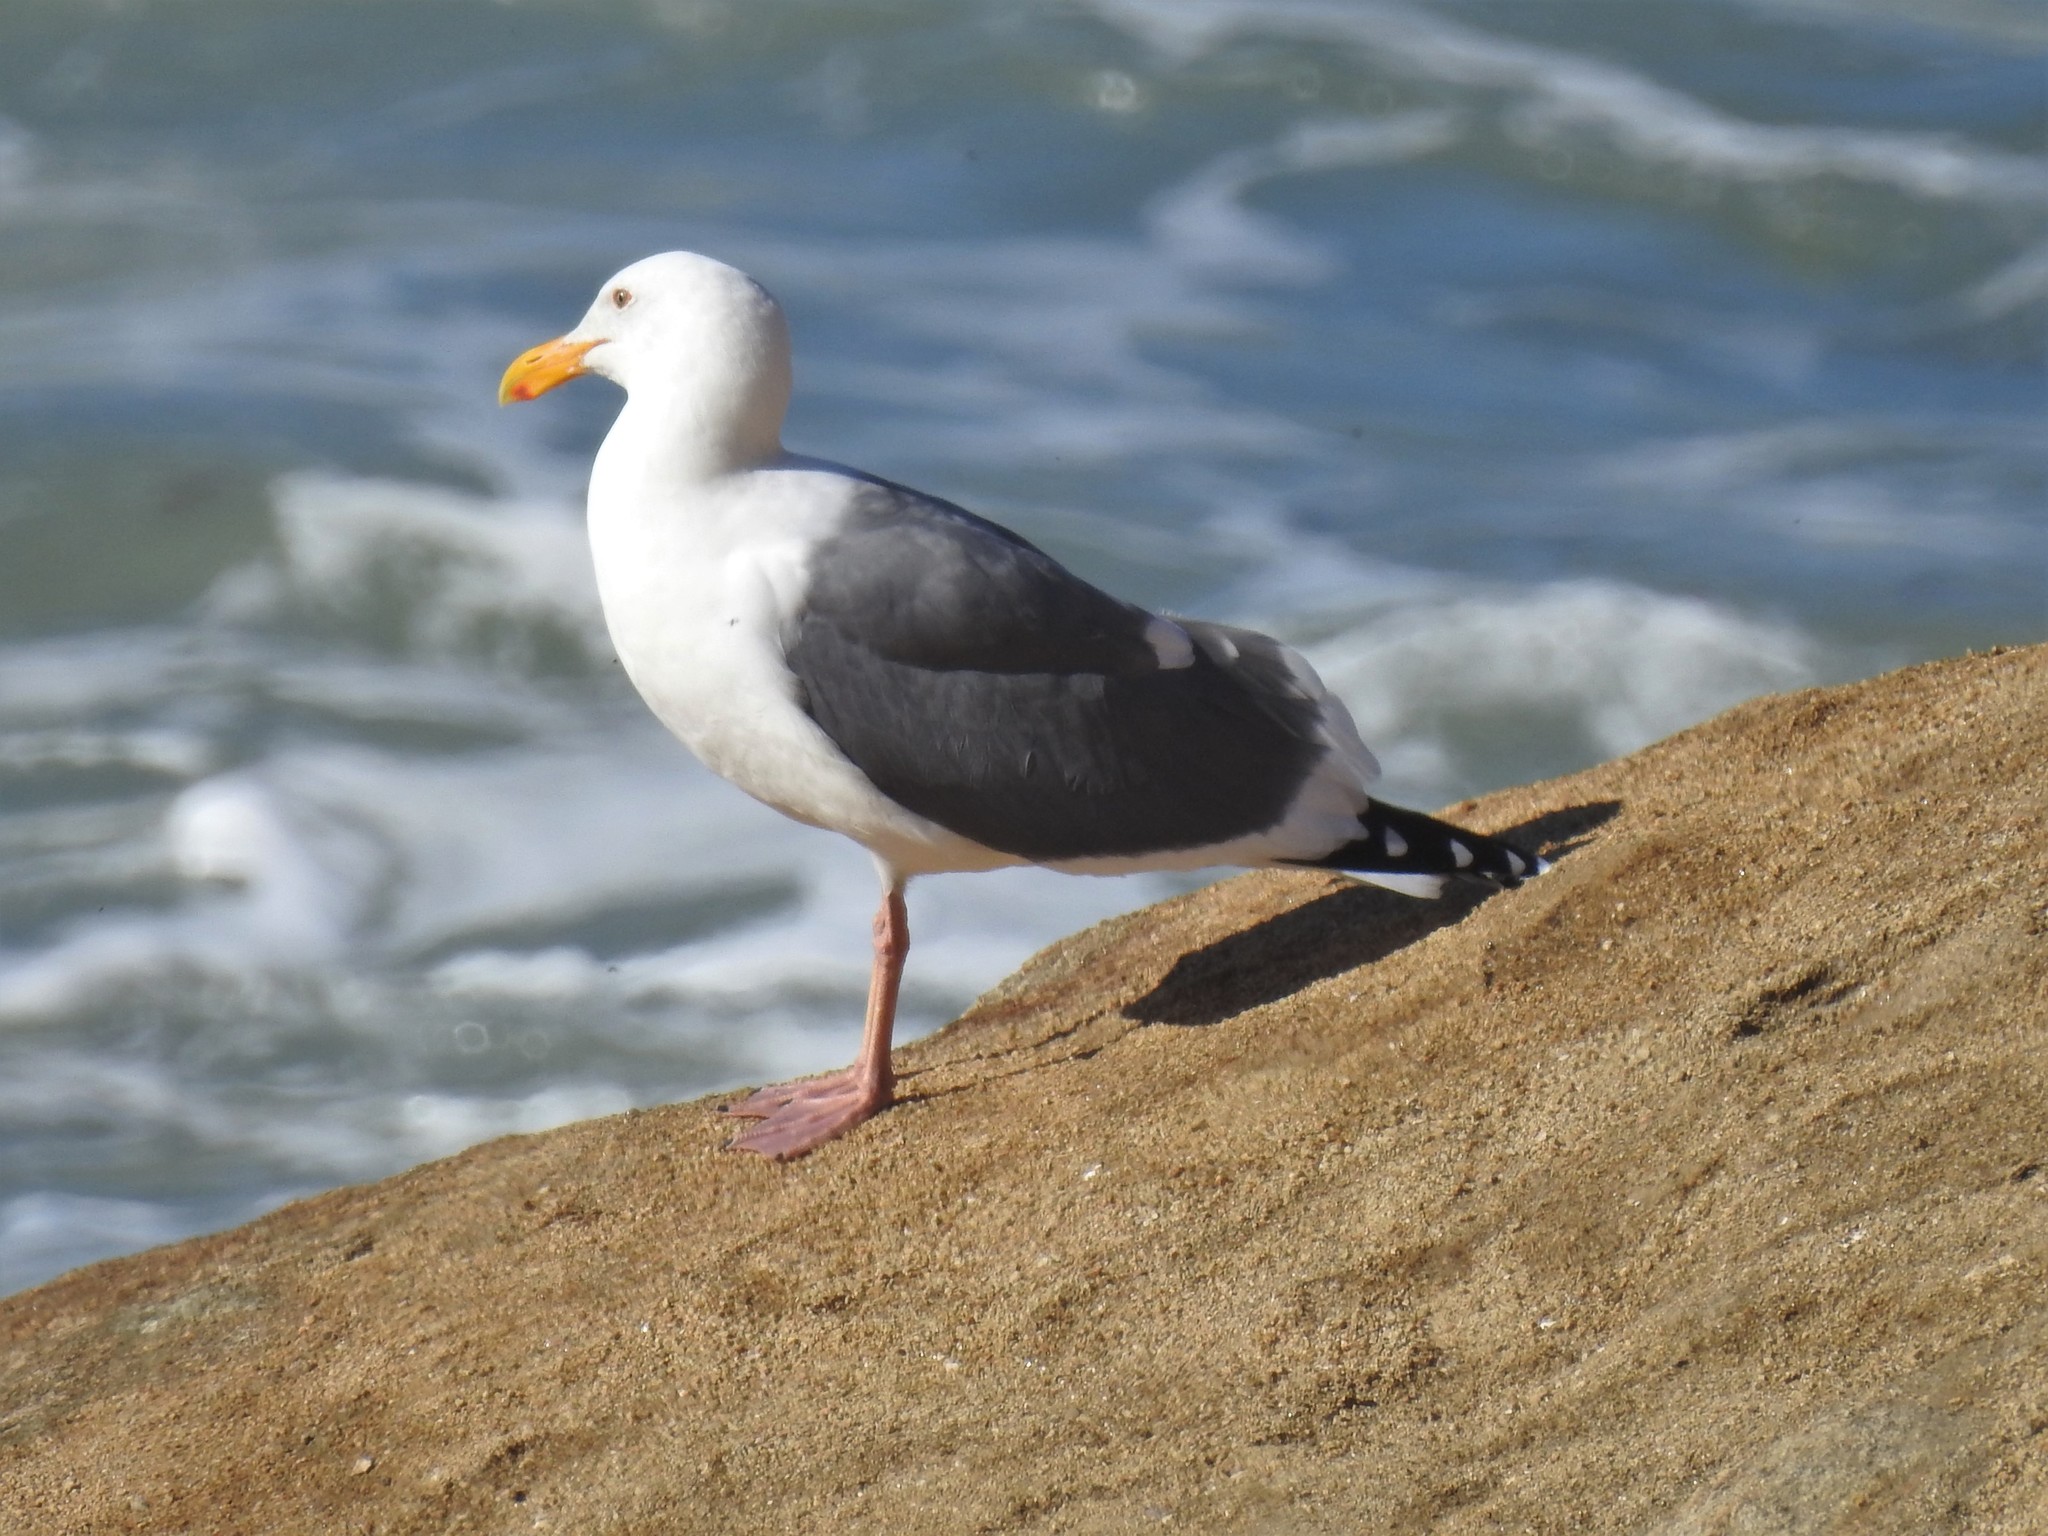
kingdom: Animalia
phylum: Chordata
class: Aves
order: Charadriiformes
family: Laridae
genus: Larus
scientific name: Larus occidentalis
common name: Western gull
